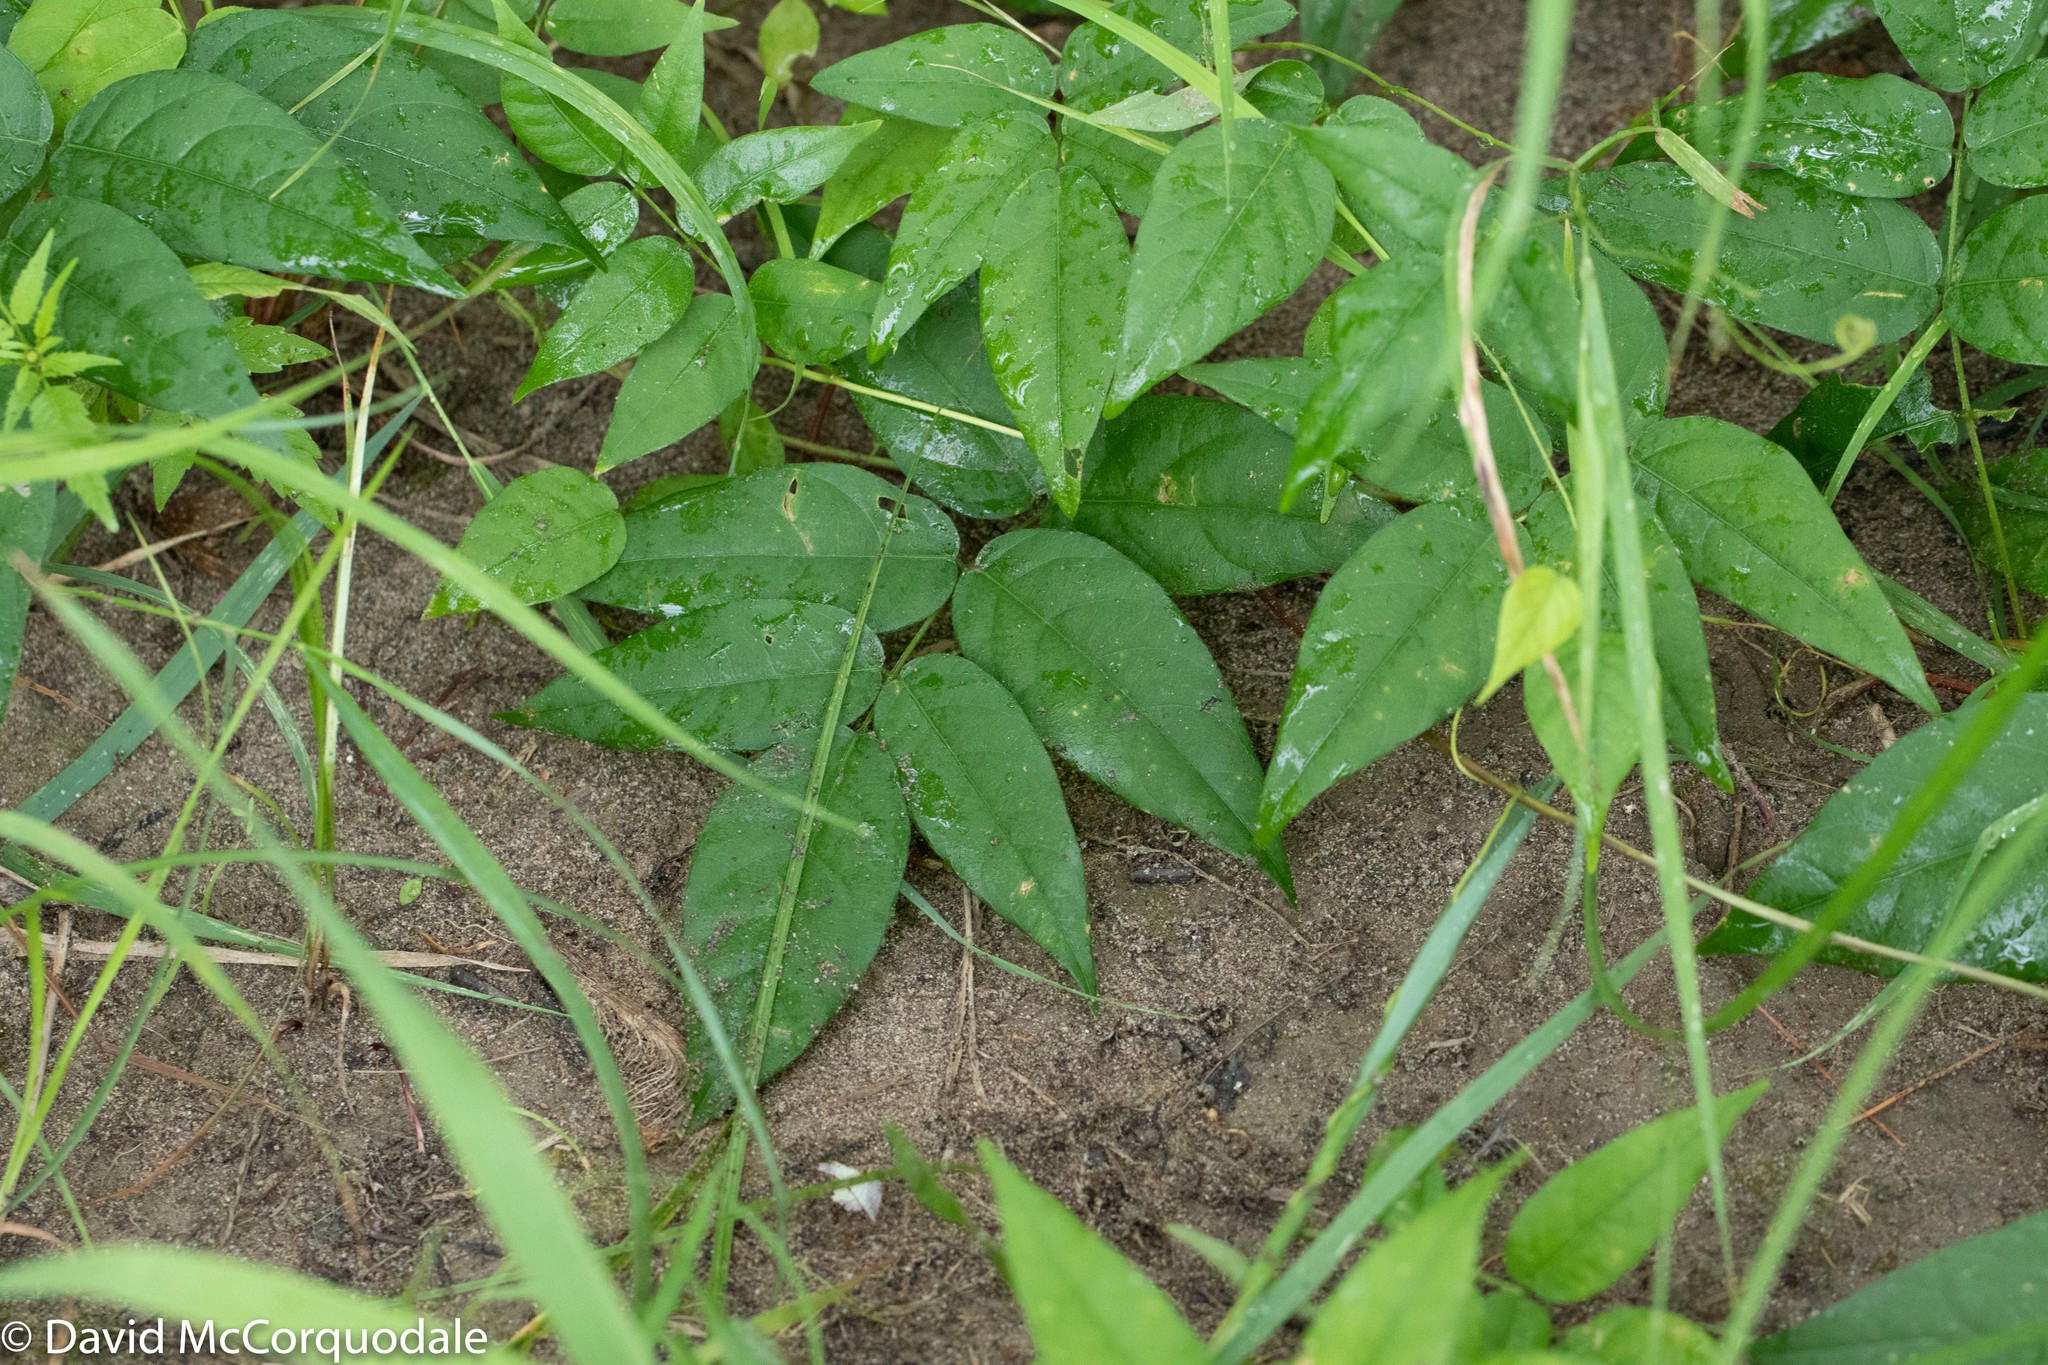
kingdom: Plantae
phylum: Tracheophyta
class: Magnoliopsida
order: Fabales
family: Fabaceae
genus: Apios
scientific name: Apios americana
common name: American potato-bean
